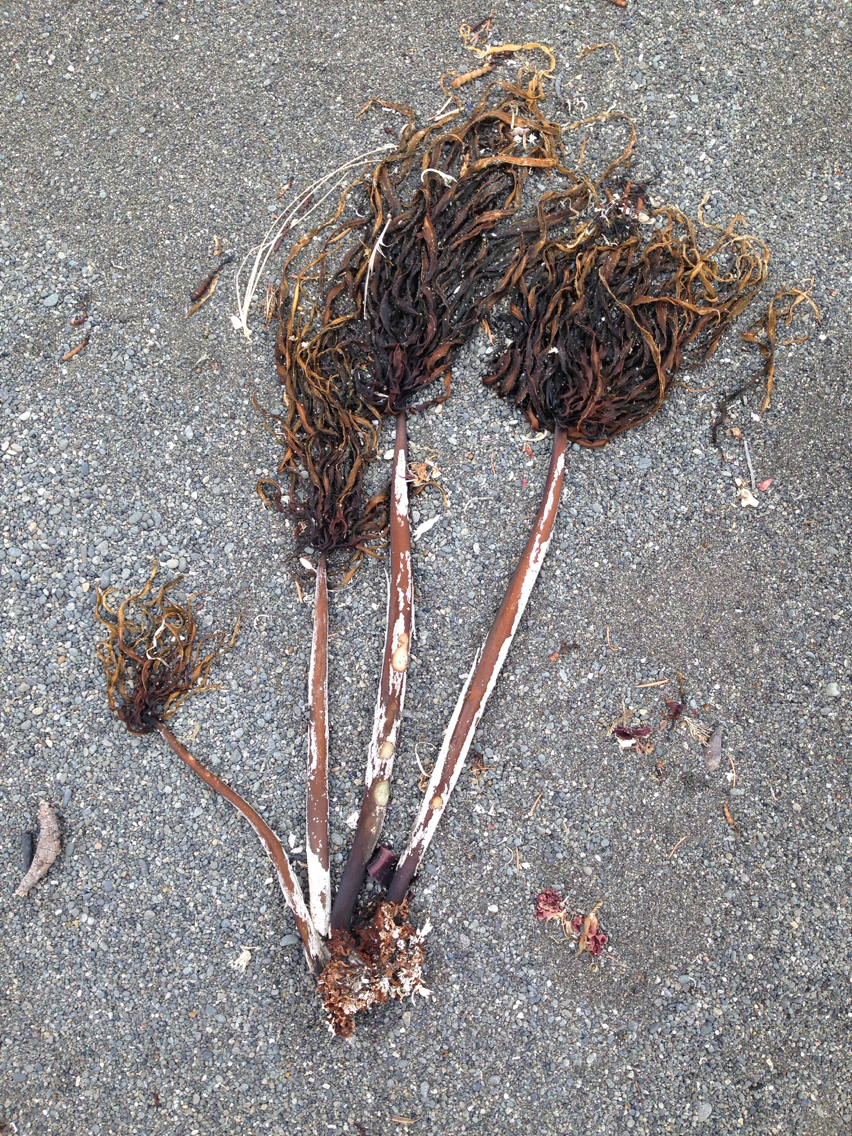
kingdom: Chromista
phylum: Ochrophyta
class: Phaeophyceae
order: Laminariales
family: Laminariaceae
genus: Postelsia
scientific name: Postelsia palmiformis
